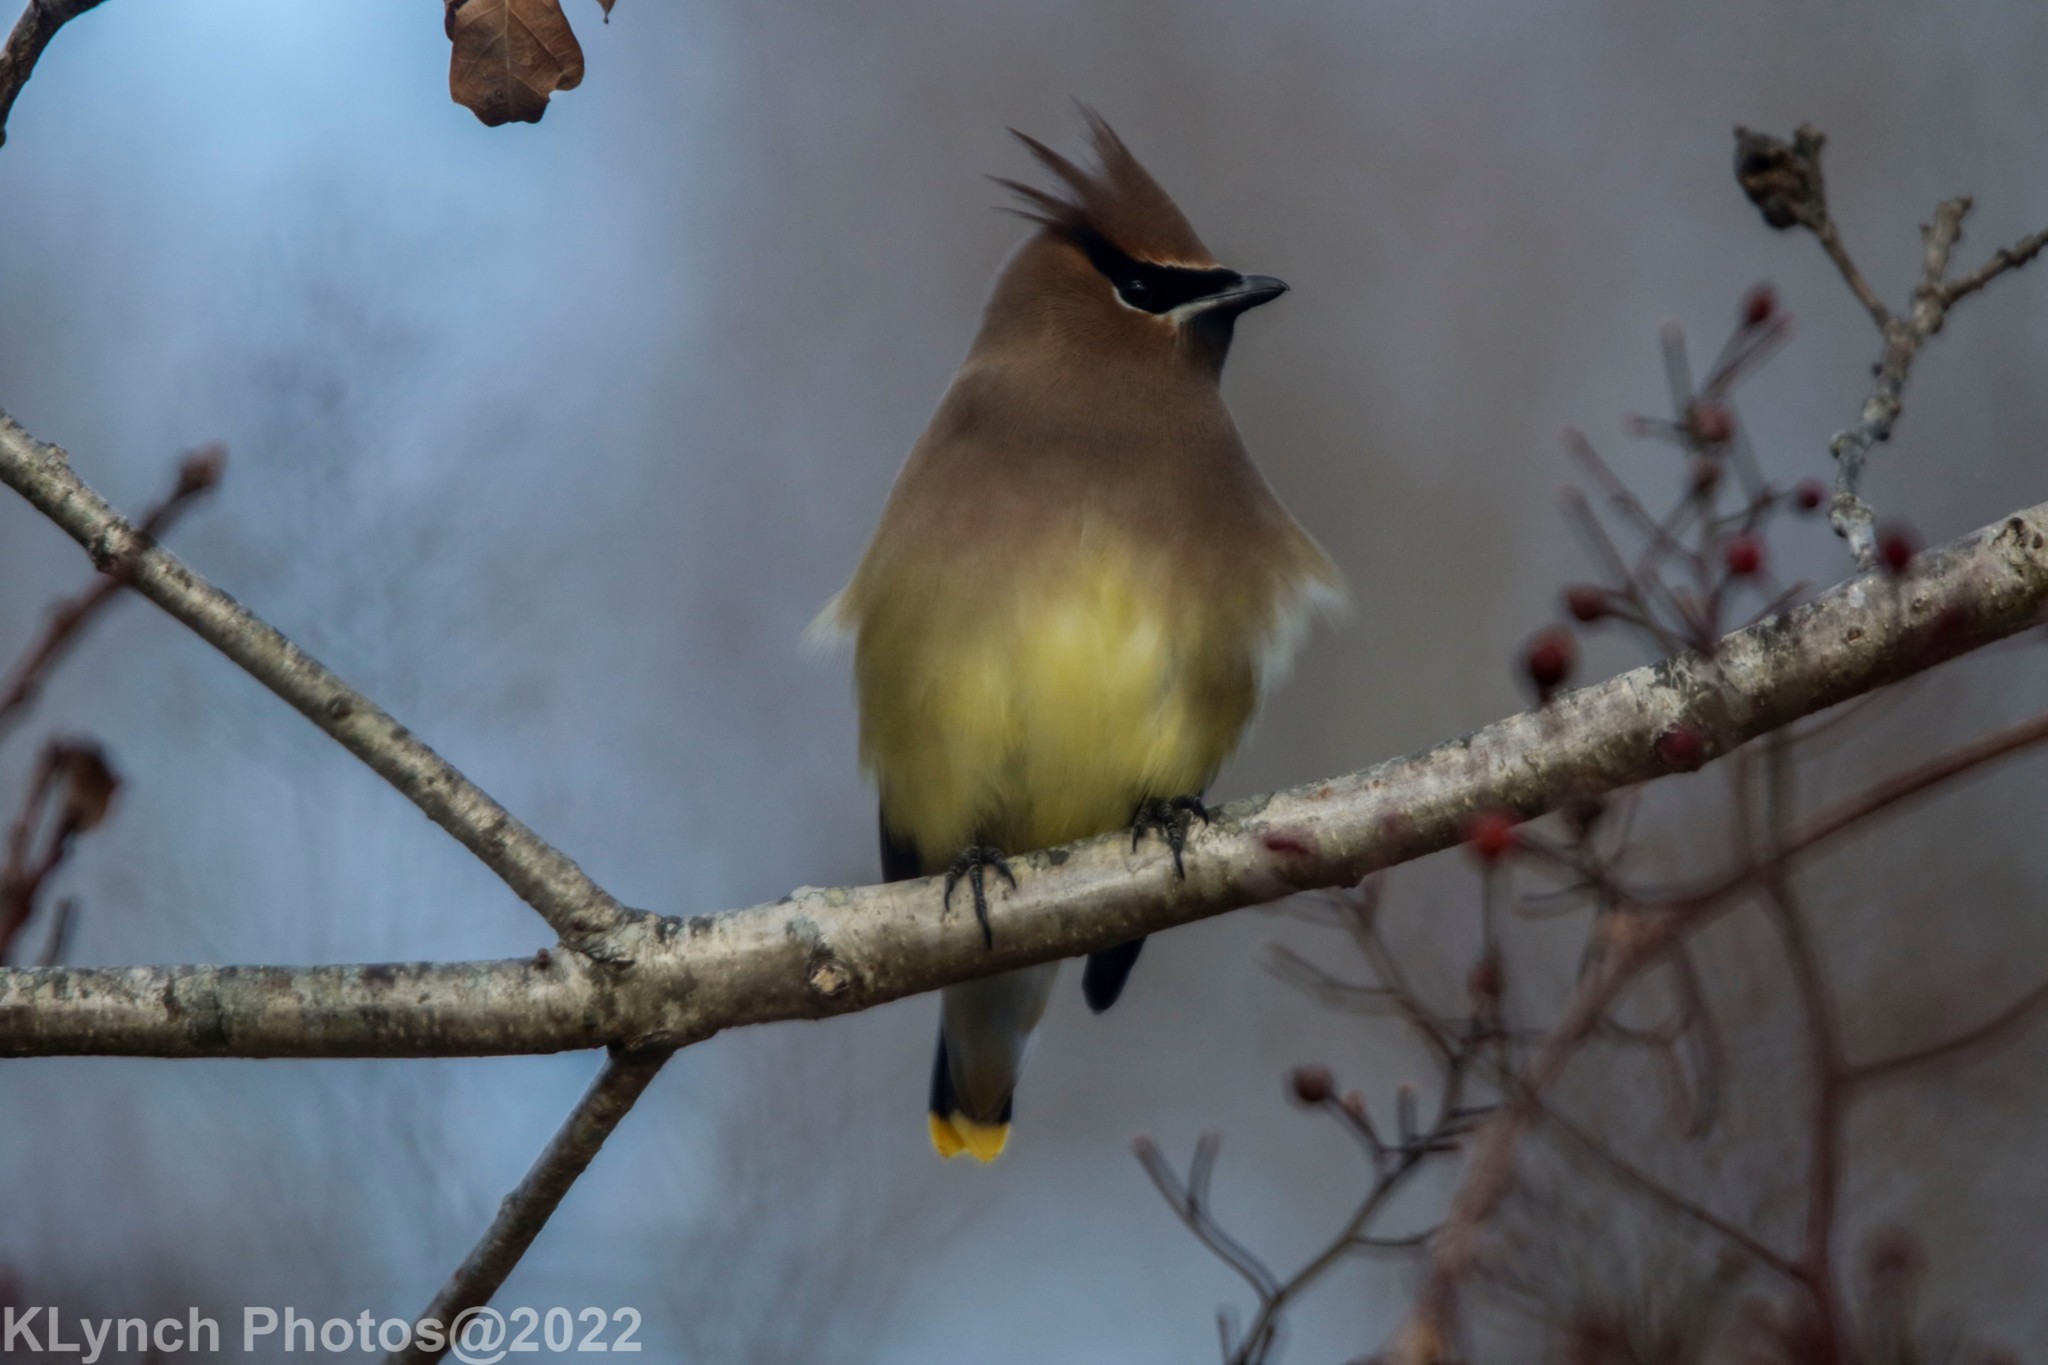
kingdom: Animalia
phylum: Chordata
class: Aves
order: Passeriformes
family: Bombycillidae
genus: Bombycilla
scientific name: Bombycilla cedrorum
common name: Cedar waxwing
